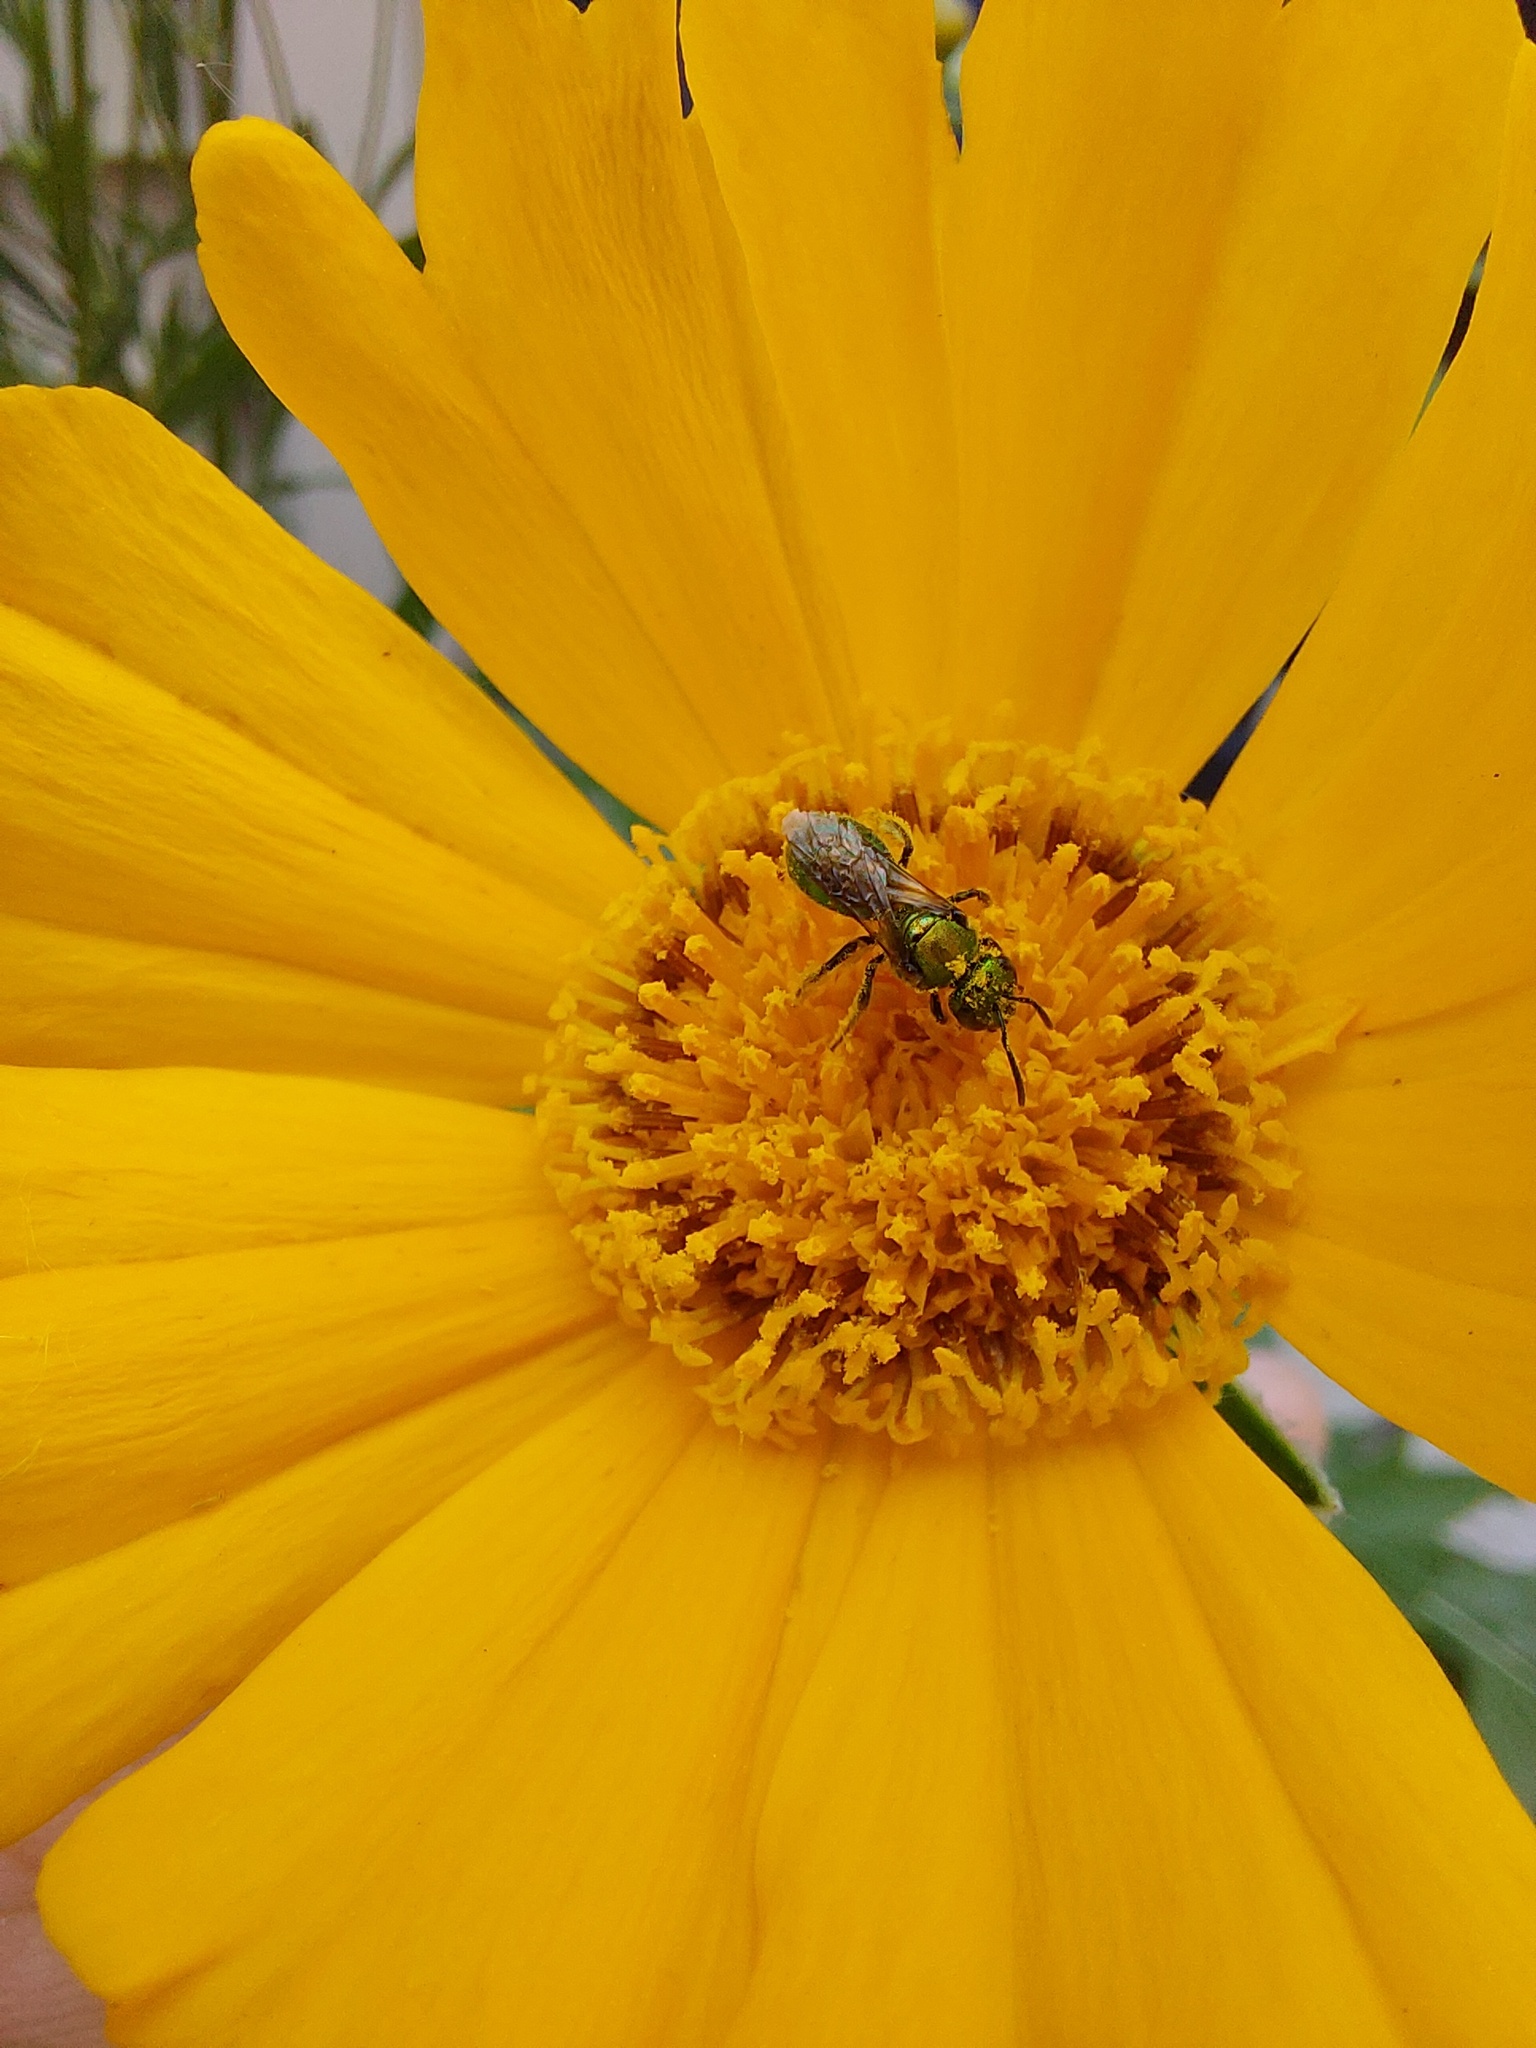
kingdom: Animalia
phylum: Arthropoda
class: Insecta
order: Hymenoptera
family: Halictidae
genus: Augochlora
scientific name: Augochlora pura
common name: Pure green sweat bee
